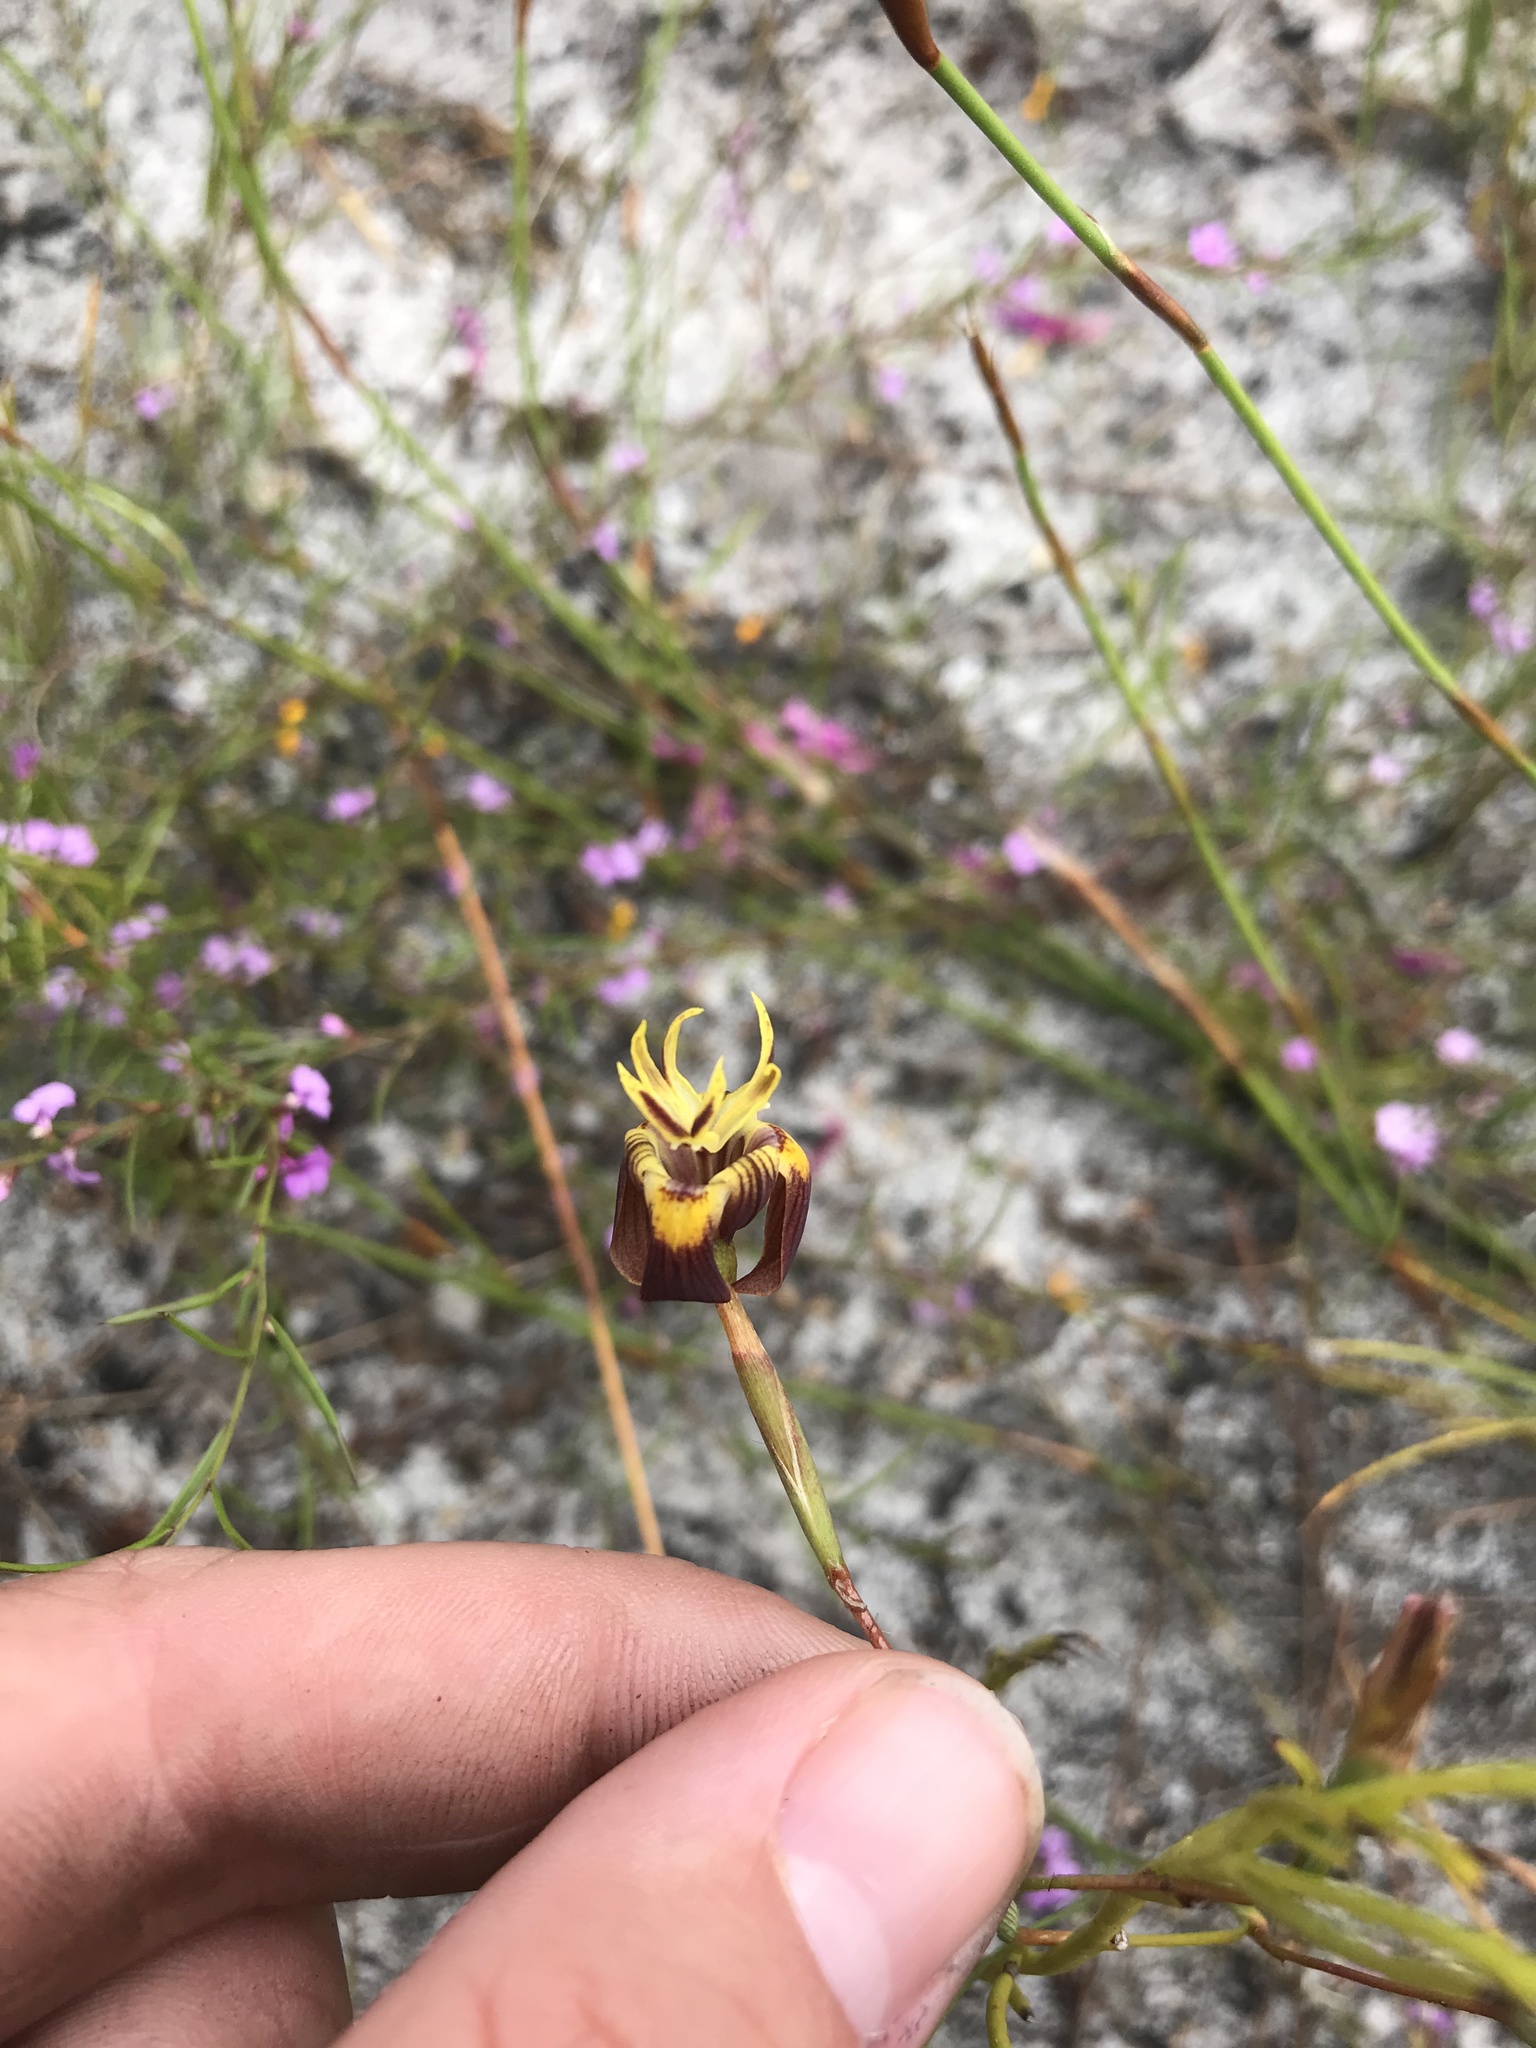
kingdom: Plantae
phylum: Tracheophyta
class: Liliopsida
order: Asparagales
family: Iridaceae
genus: Moraea
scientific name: Moraea inconspicua
